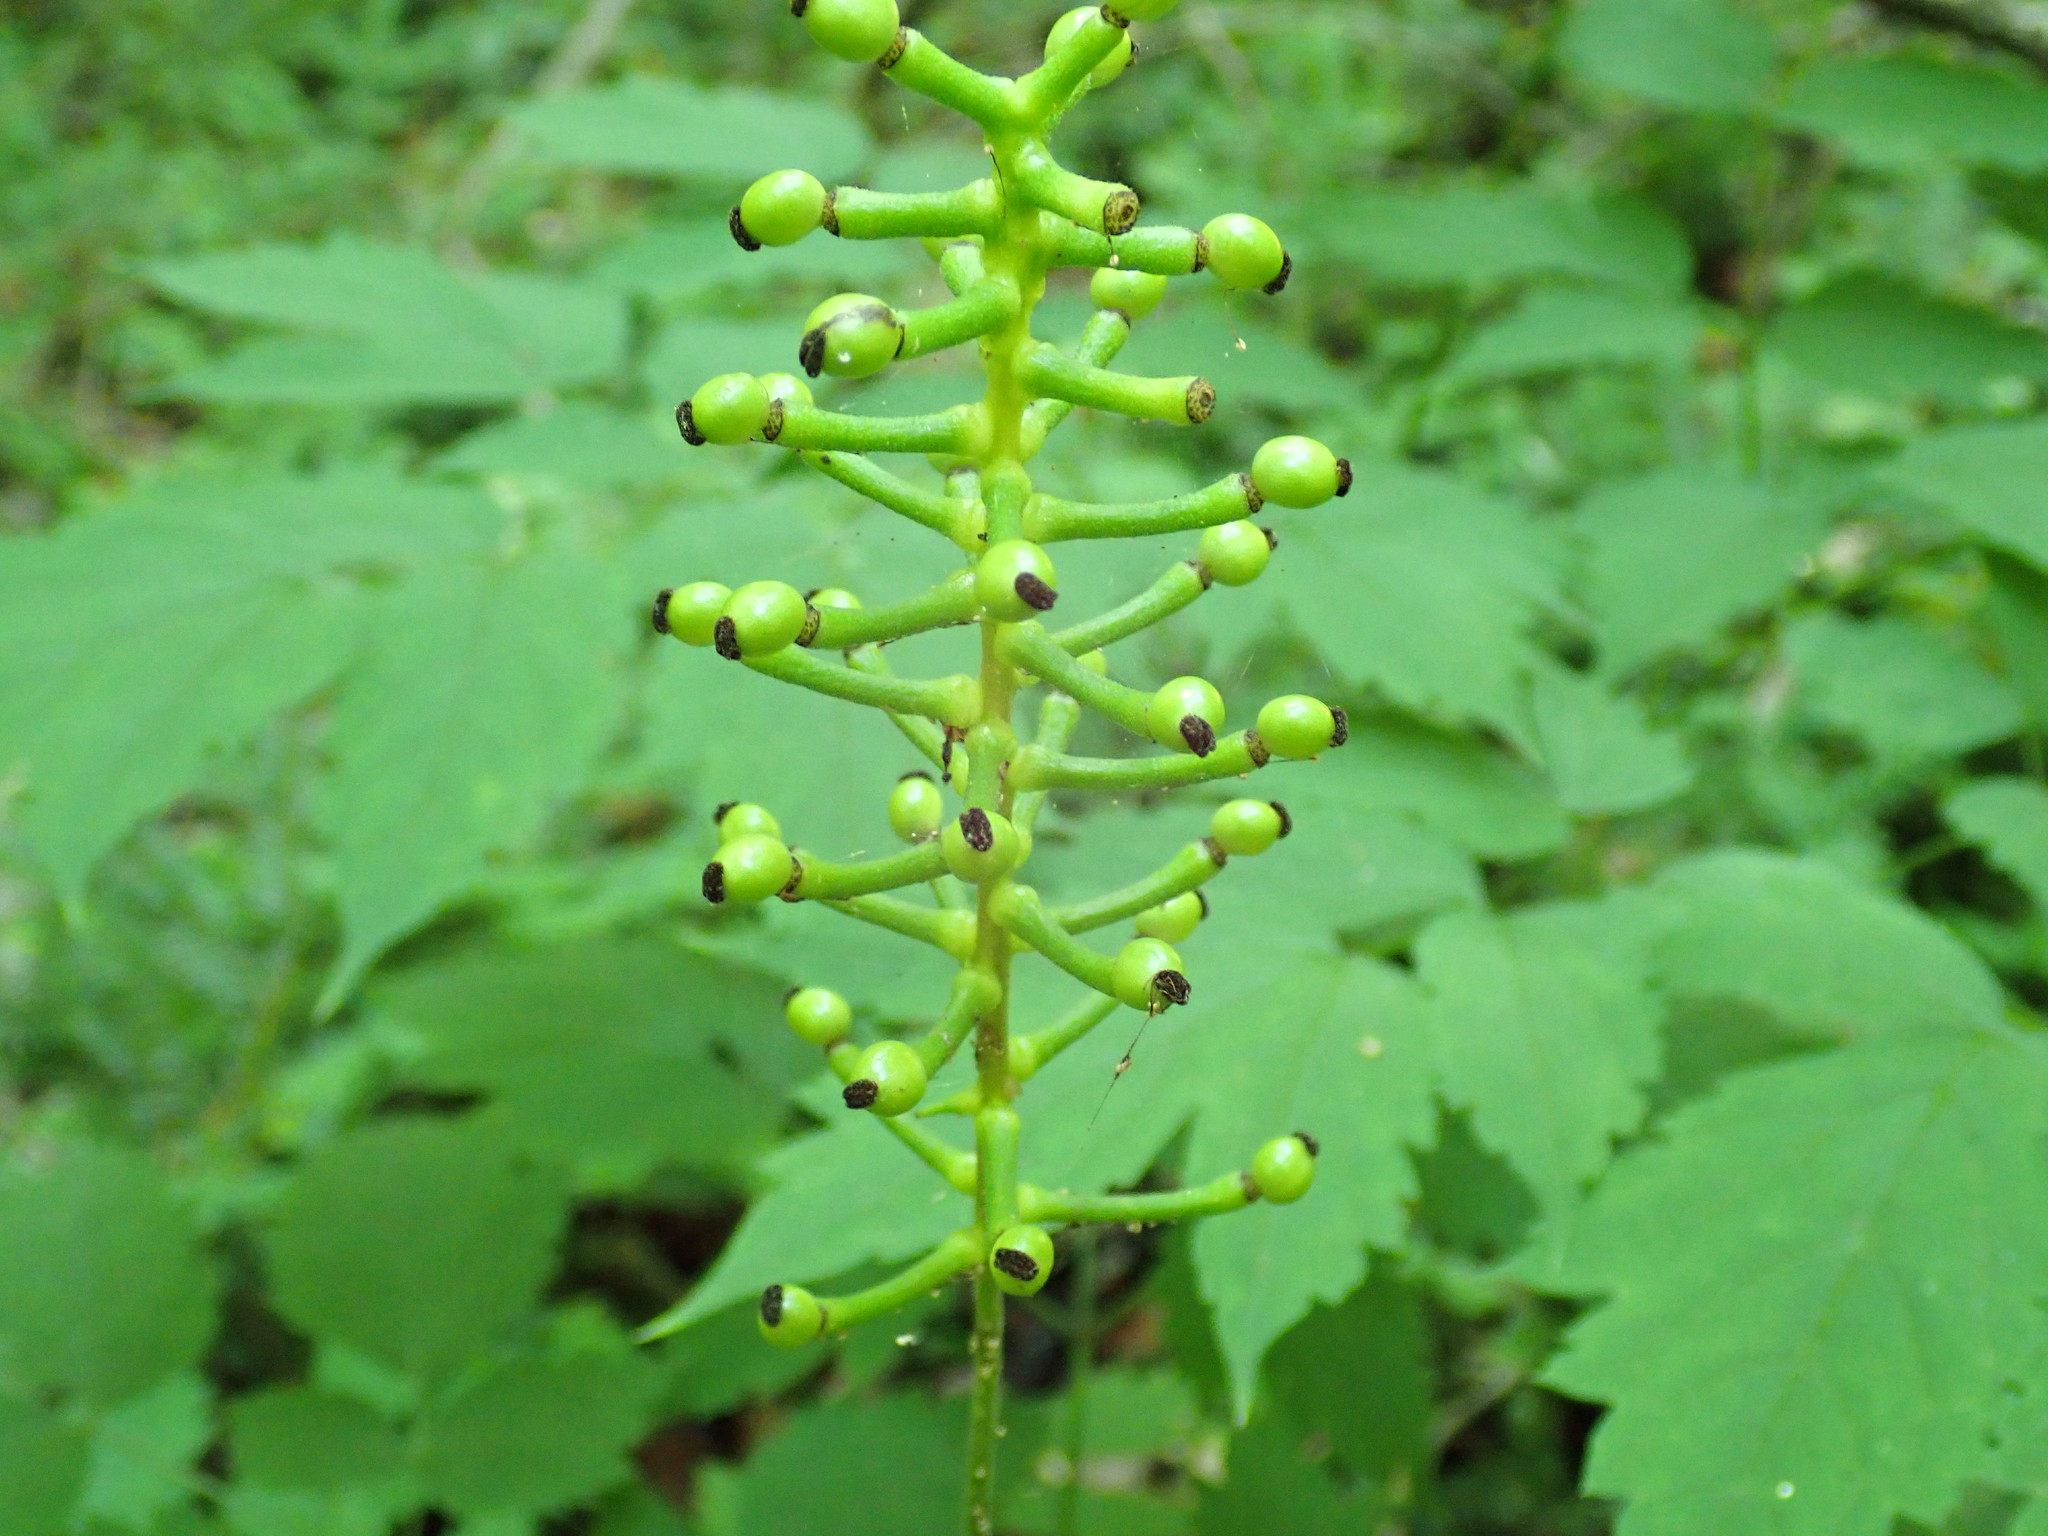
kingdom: Plantae
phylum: Tracheophyta
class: Magnoliopsida
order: Ranunculales
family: Ranunculaceae
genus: Actaea
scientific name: Actaea pachypoda
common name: Doll's-eyes
